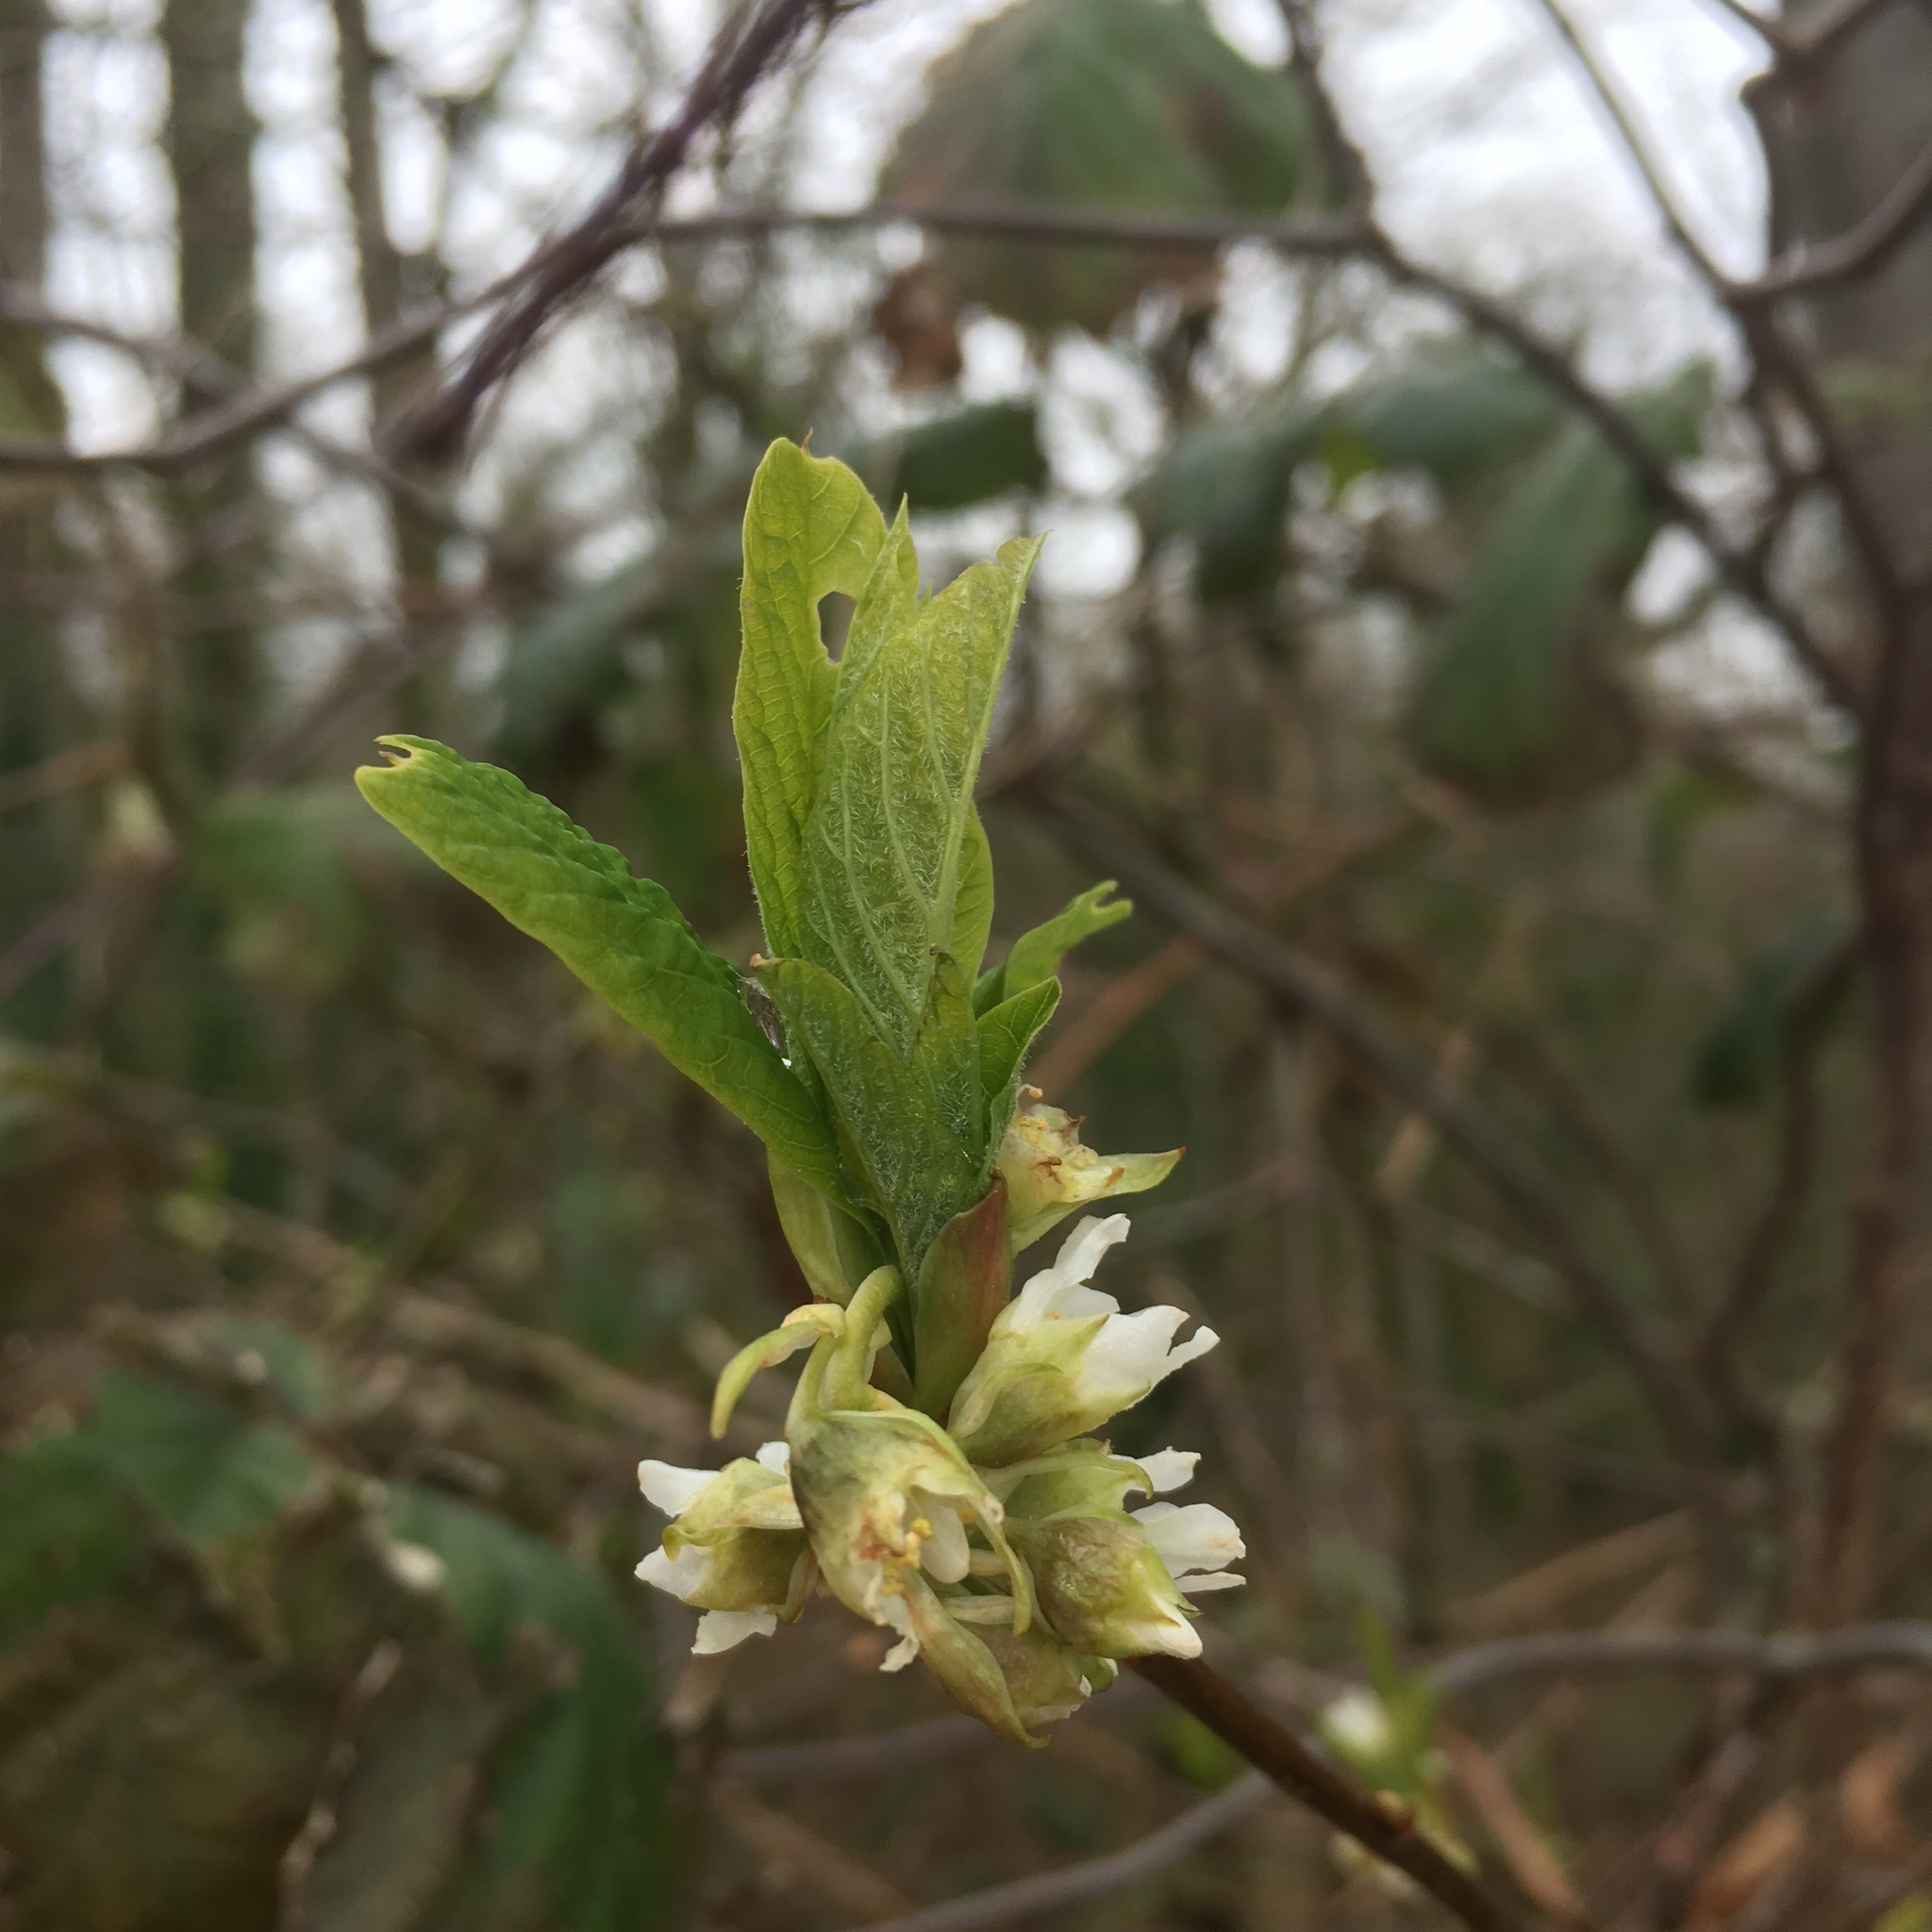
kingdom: Plantae
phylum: Tracheophyta
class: Magnoliopsida
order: Rosales
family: Rosaceae
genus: Oemleria
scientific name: Oemleria cerasiformis
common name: Osoberry
